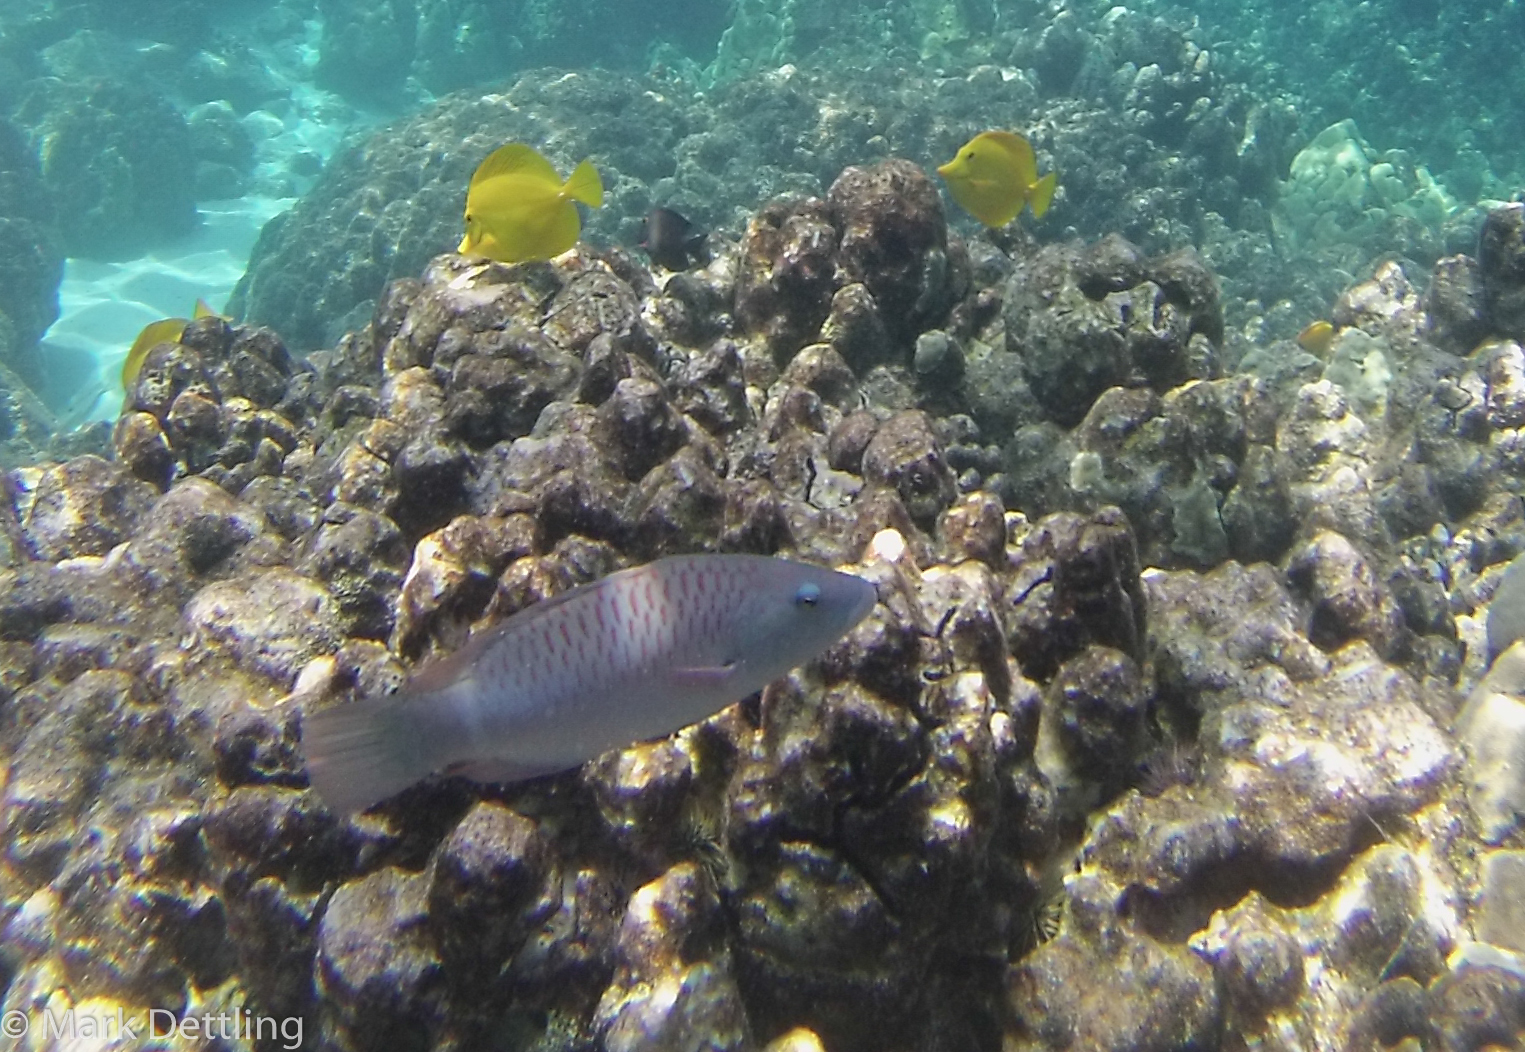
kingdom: Animalia
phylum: Chordata
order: Perciformes
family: Labridae
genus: Oxycheilinus
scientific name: Oxycheilinus unifasciatus
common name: Ringtail maori wrasse
